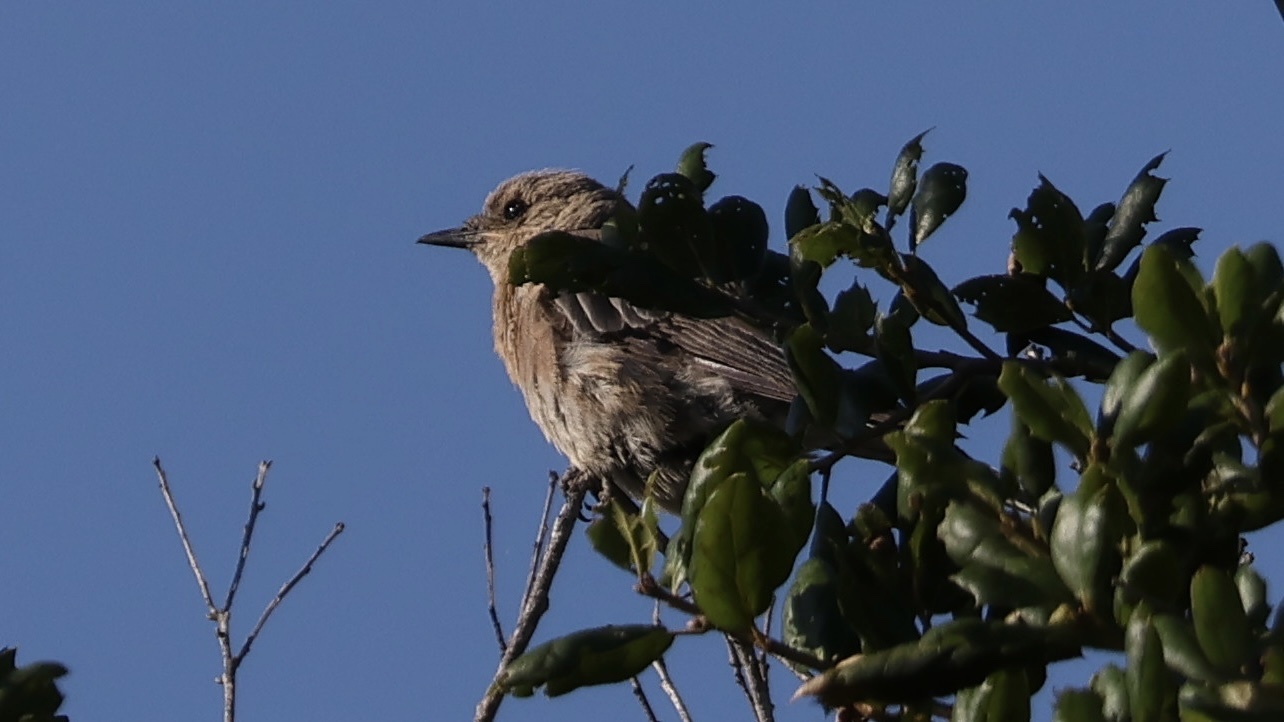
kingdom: Animalia
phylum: Chordata
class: Aves
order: Passeriformes
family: Turdidae
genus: Sialia
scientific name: Sialia mexicana
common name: Western bluebird
